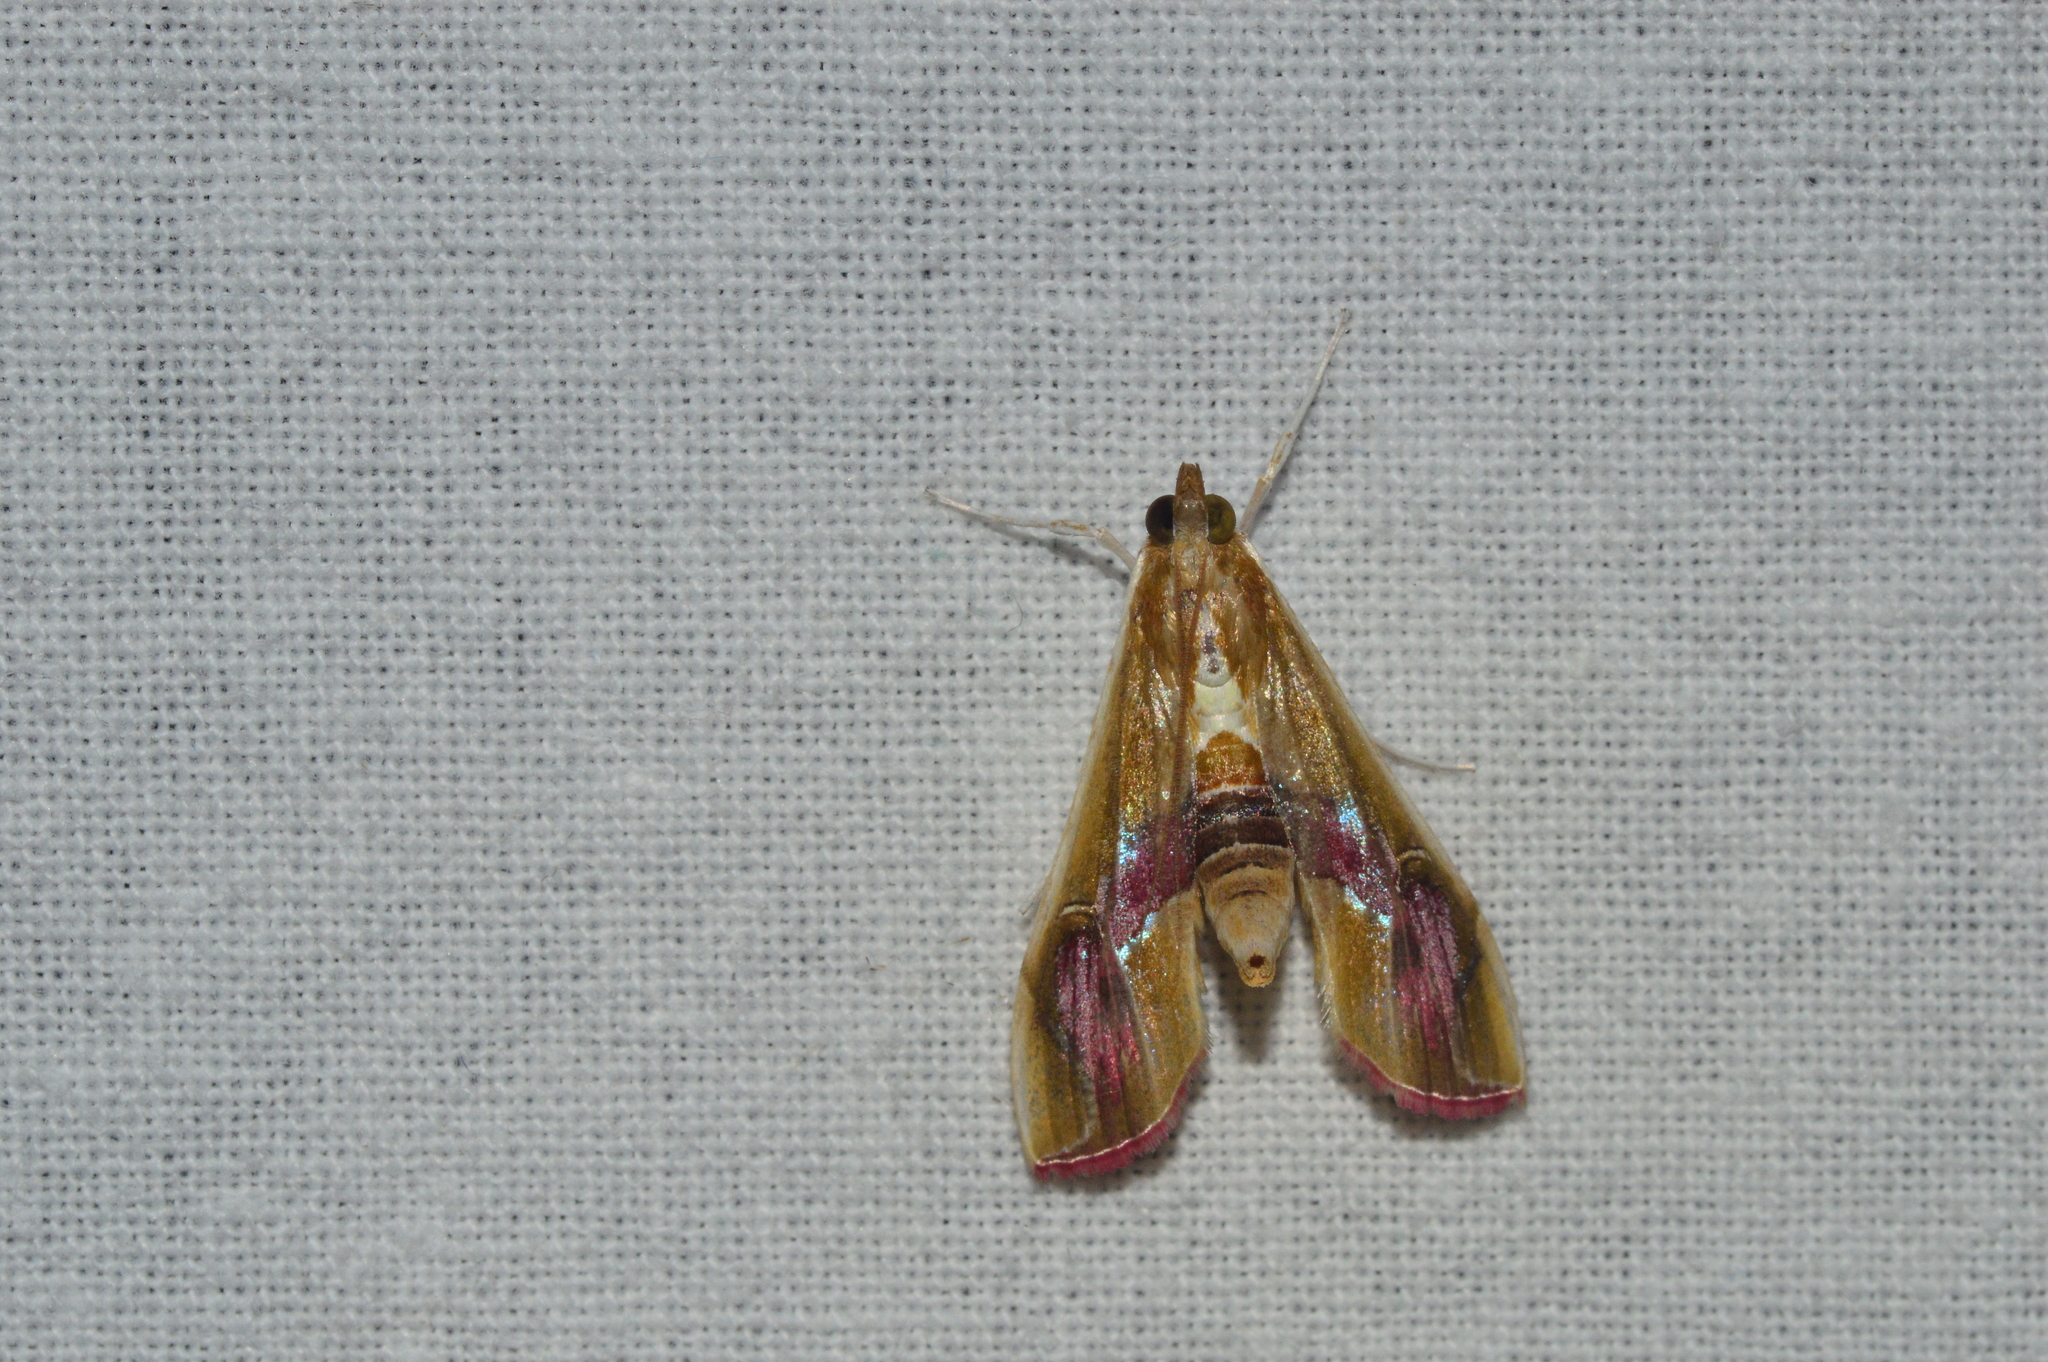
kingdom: Animalia
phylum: Arthropoda
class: Insecta
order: Lepidoptera
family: Crambidae
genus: Agathodes
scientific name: Agathodes ostentalis
